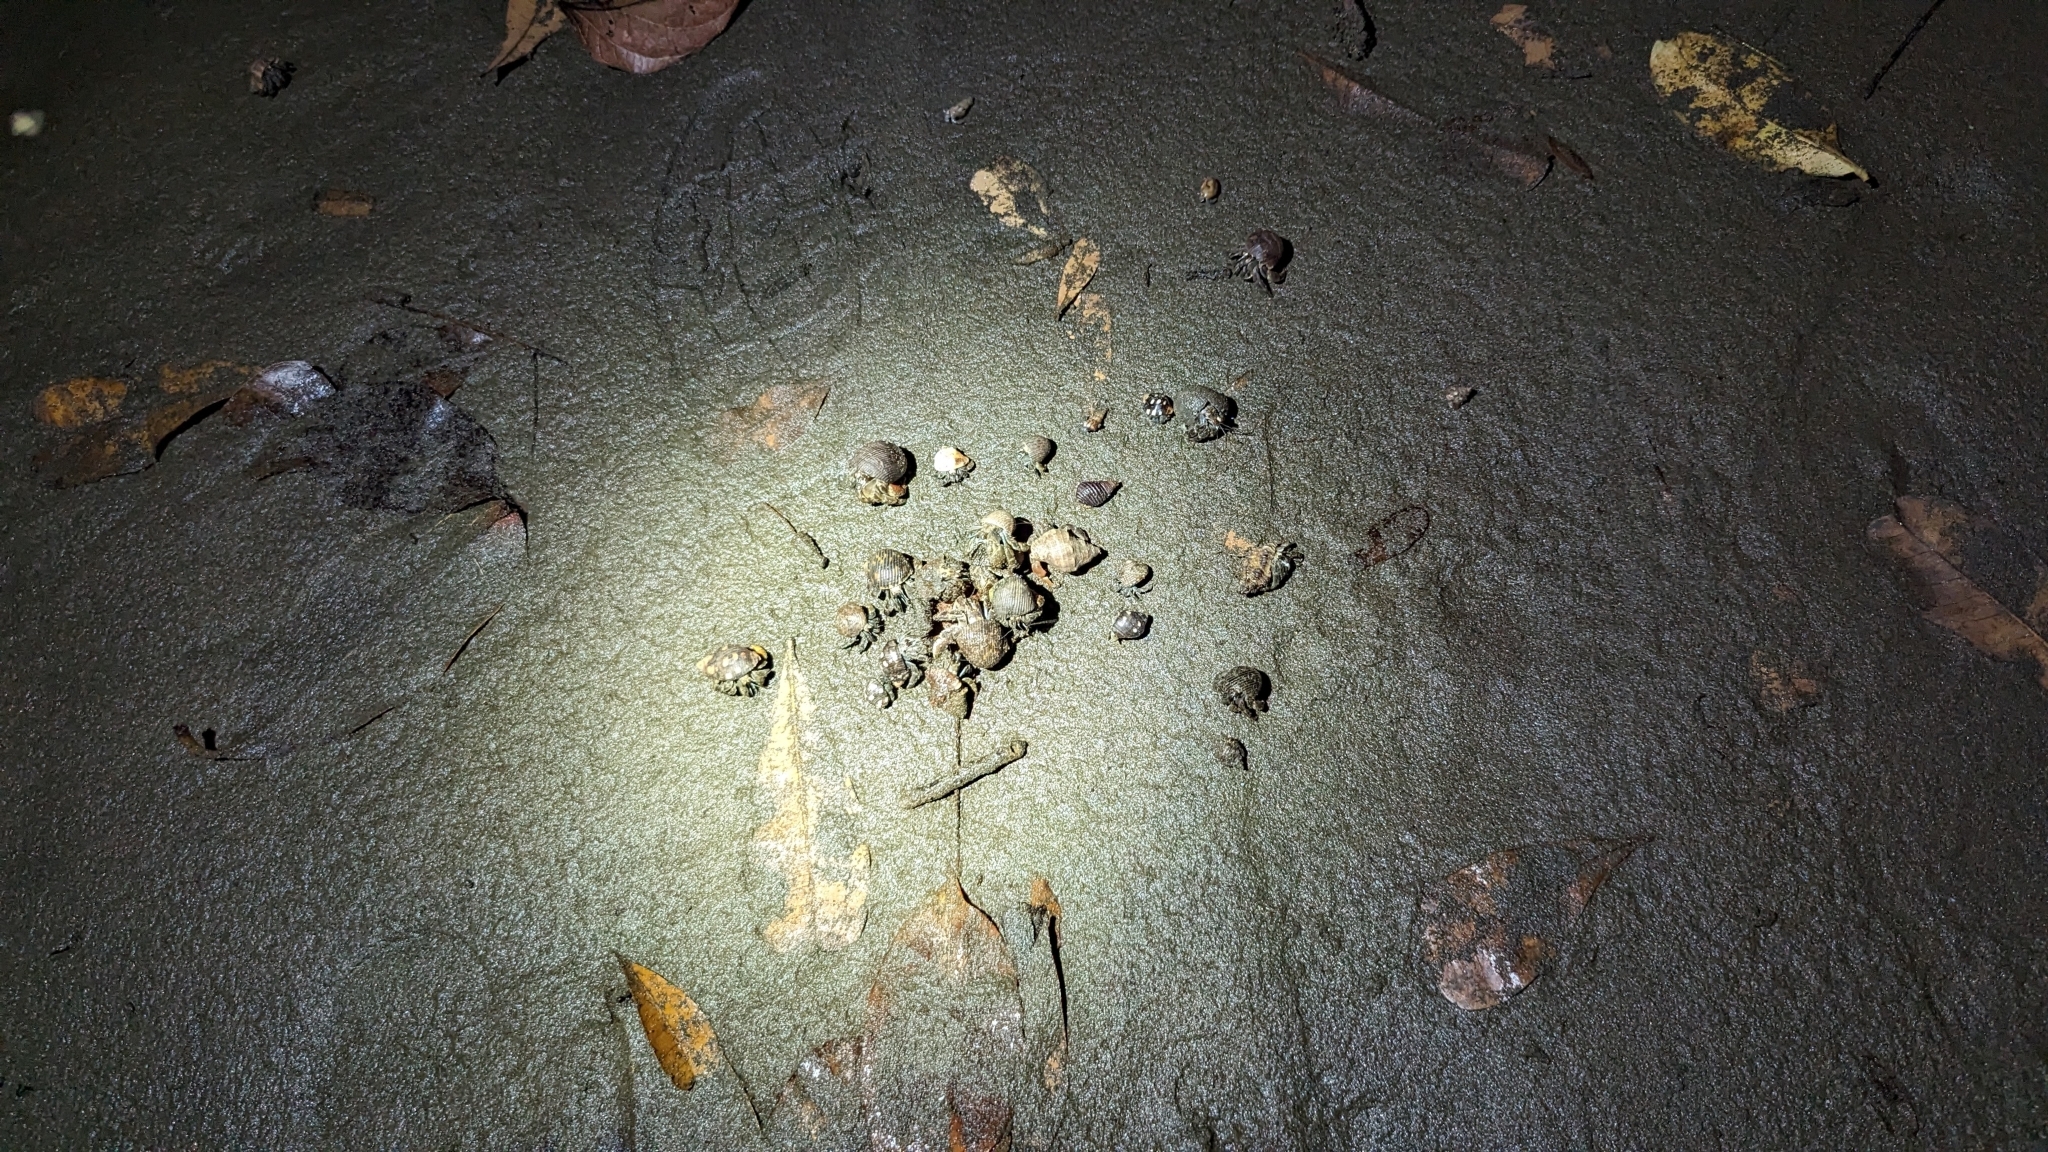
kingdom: Animalia
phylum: Arthropoda
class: Malacostraca
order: Decapoda
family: Coenobitidae
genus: Coenobita
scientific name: Coenobita compressus
